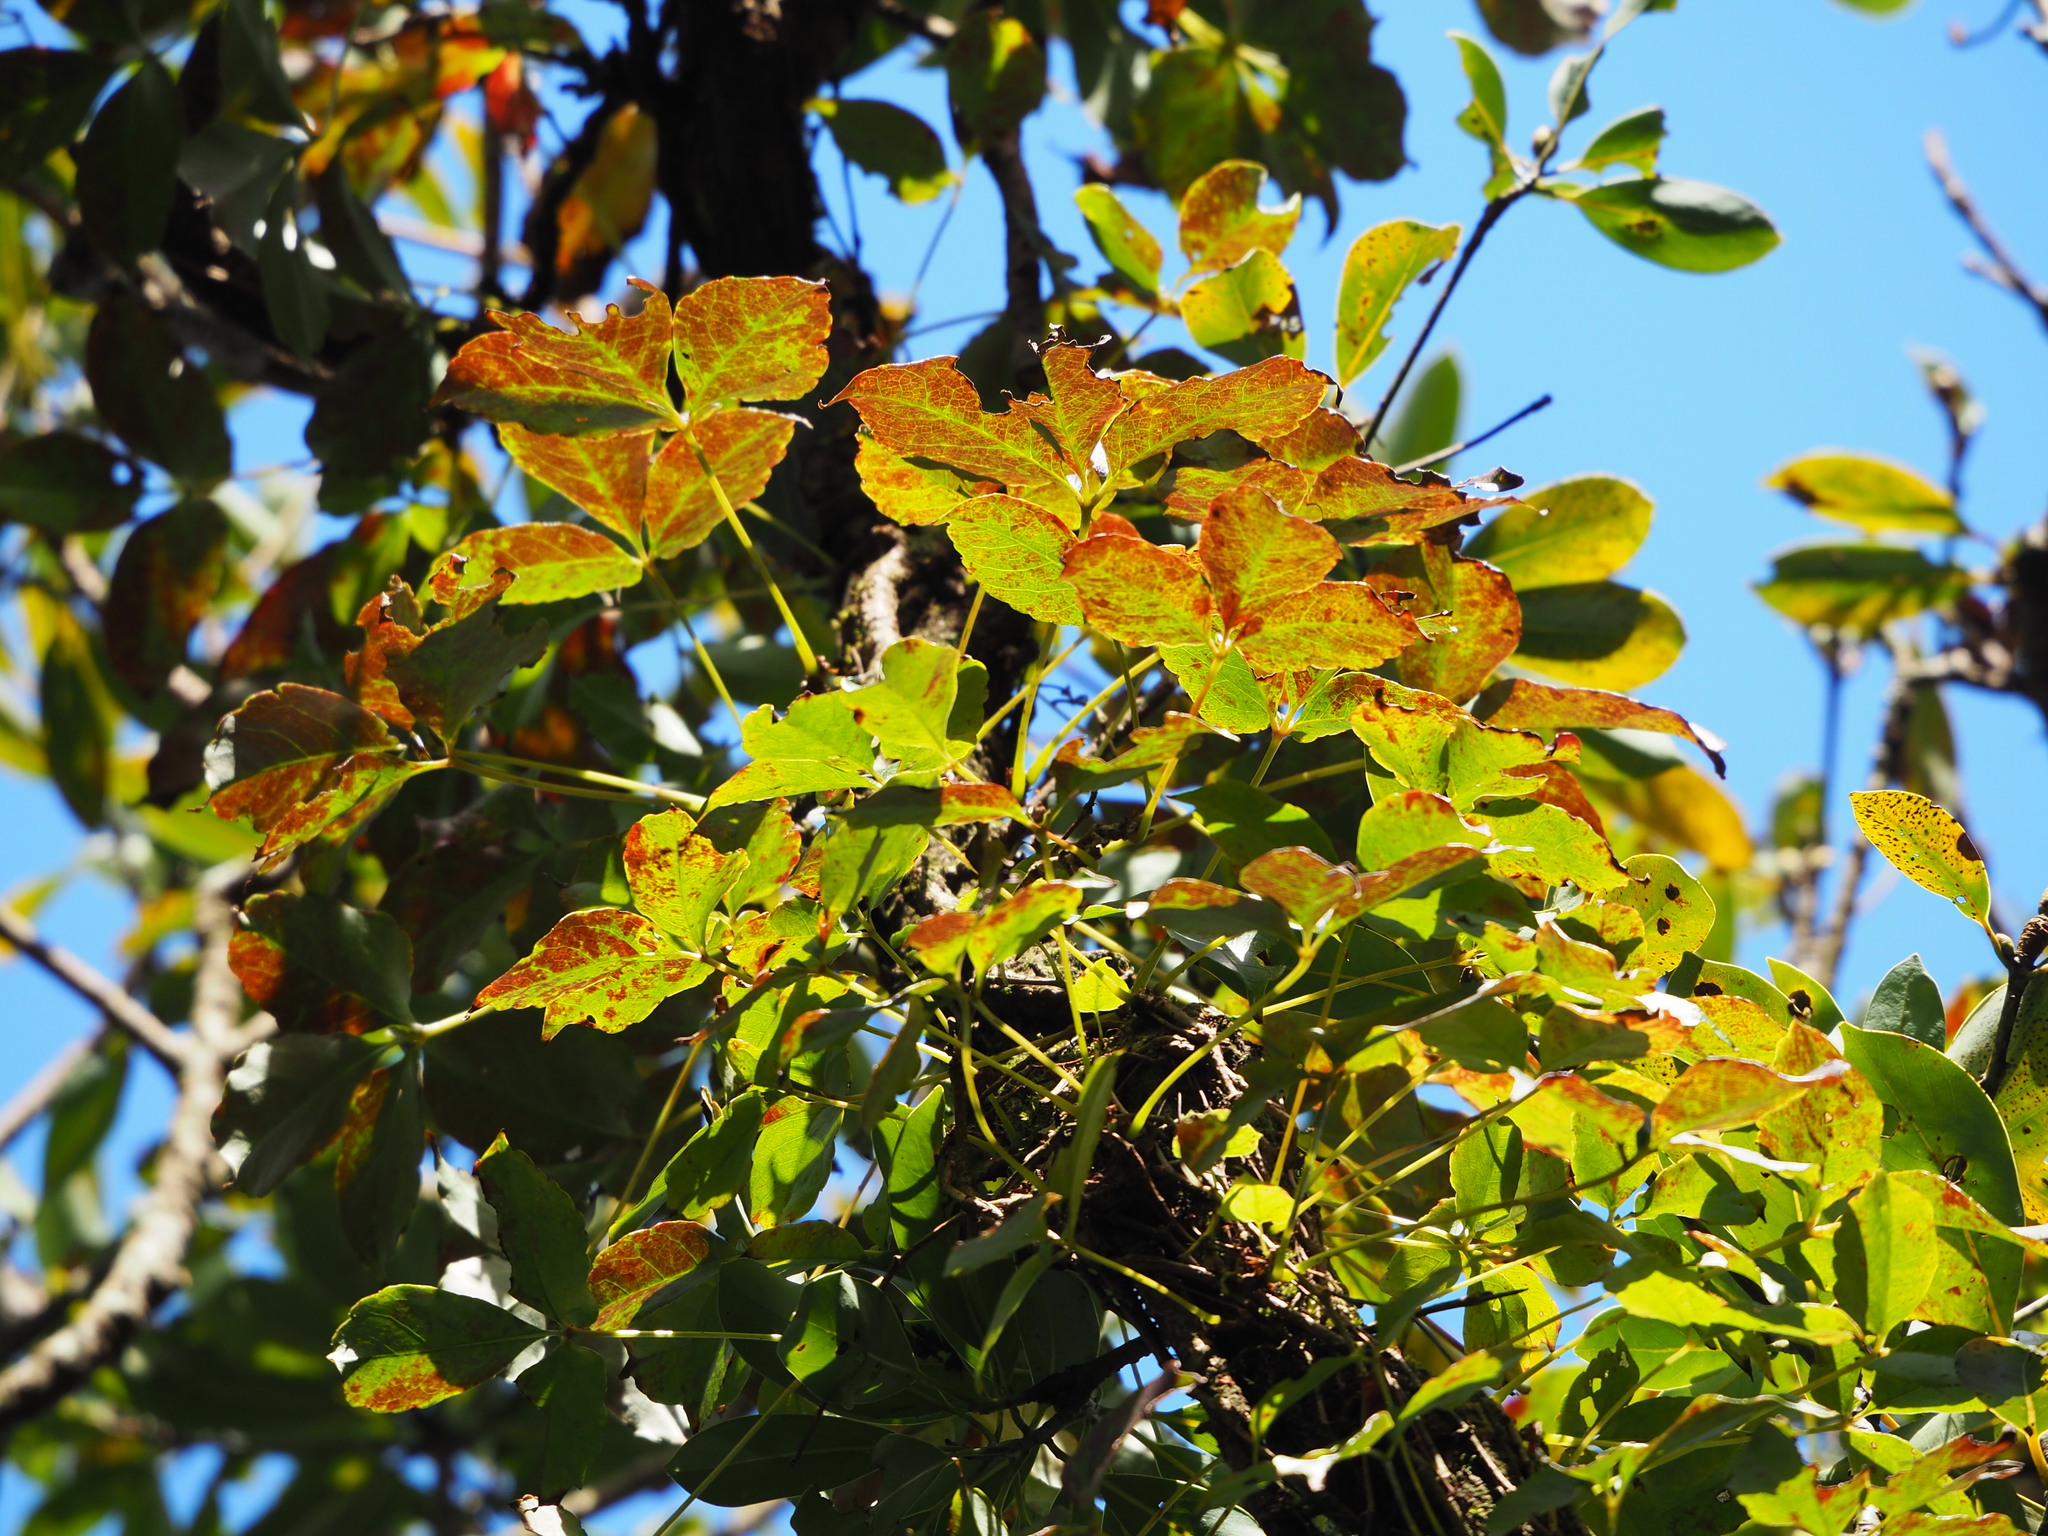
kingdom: Plantae
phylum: Tracheophyta
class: Magnoliopsida
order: Vitales
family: Vitaceae
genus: Parthenocissus
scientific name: Parthenocissus tricuspidata
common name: Boston ivy
